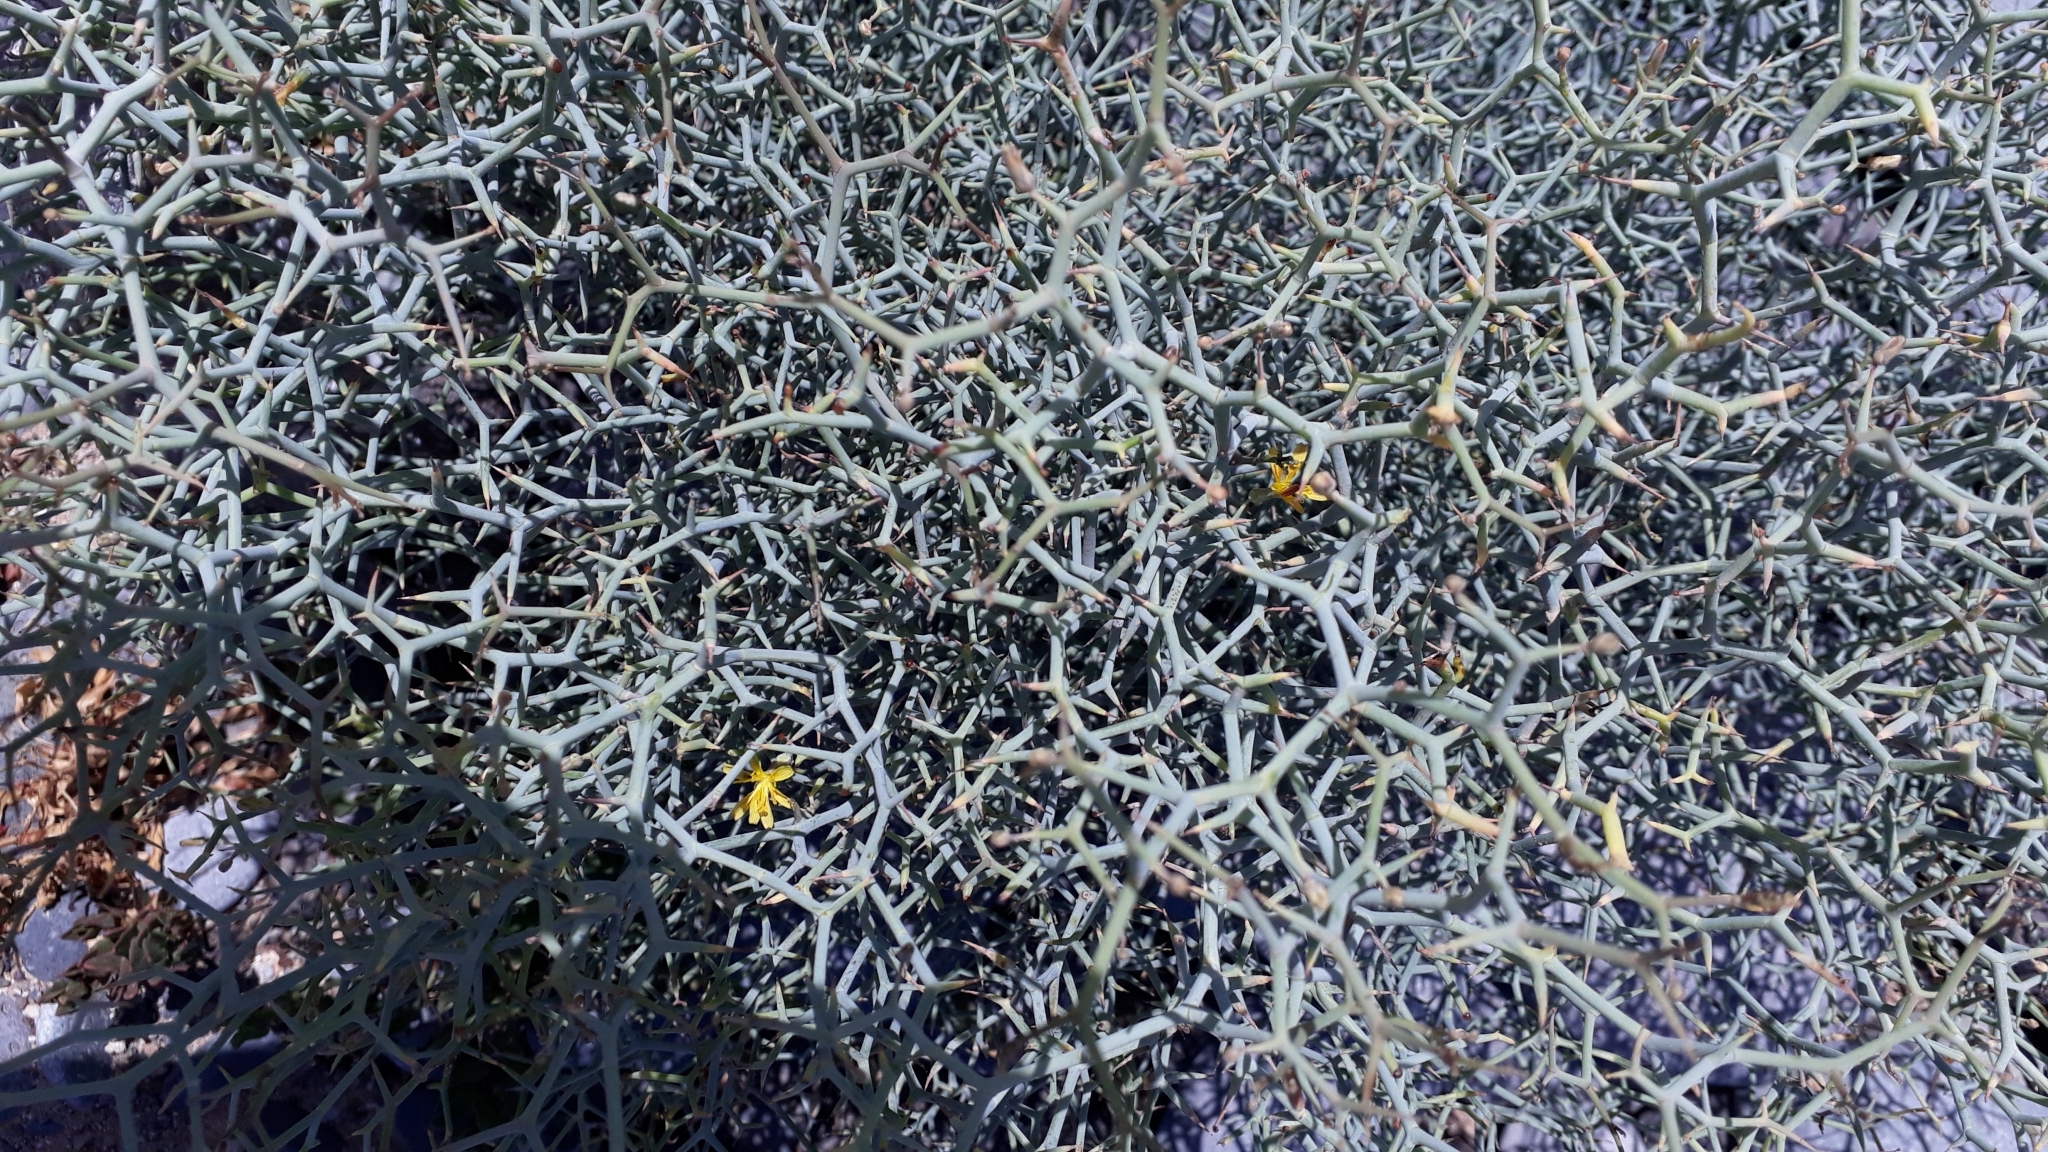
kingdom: Plantae
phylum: Tracheophyta
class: Magnoliopsida
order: Asterales
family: Asteraceae
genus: Launaea
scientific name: Launaea arborescens
